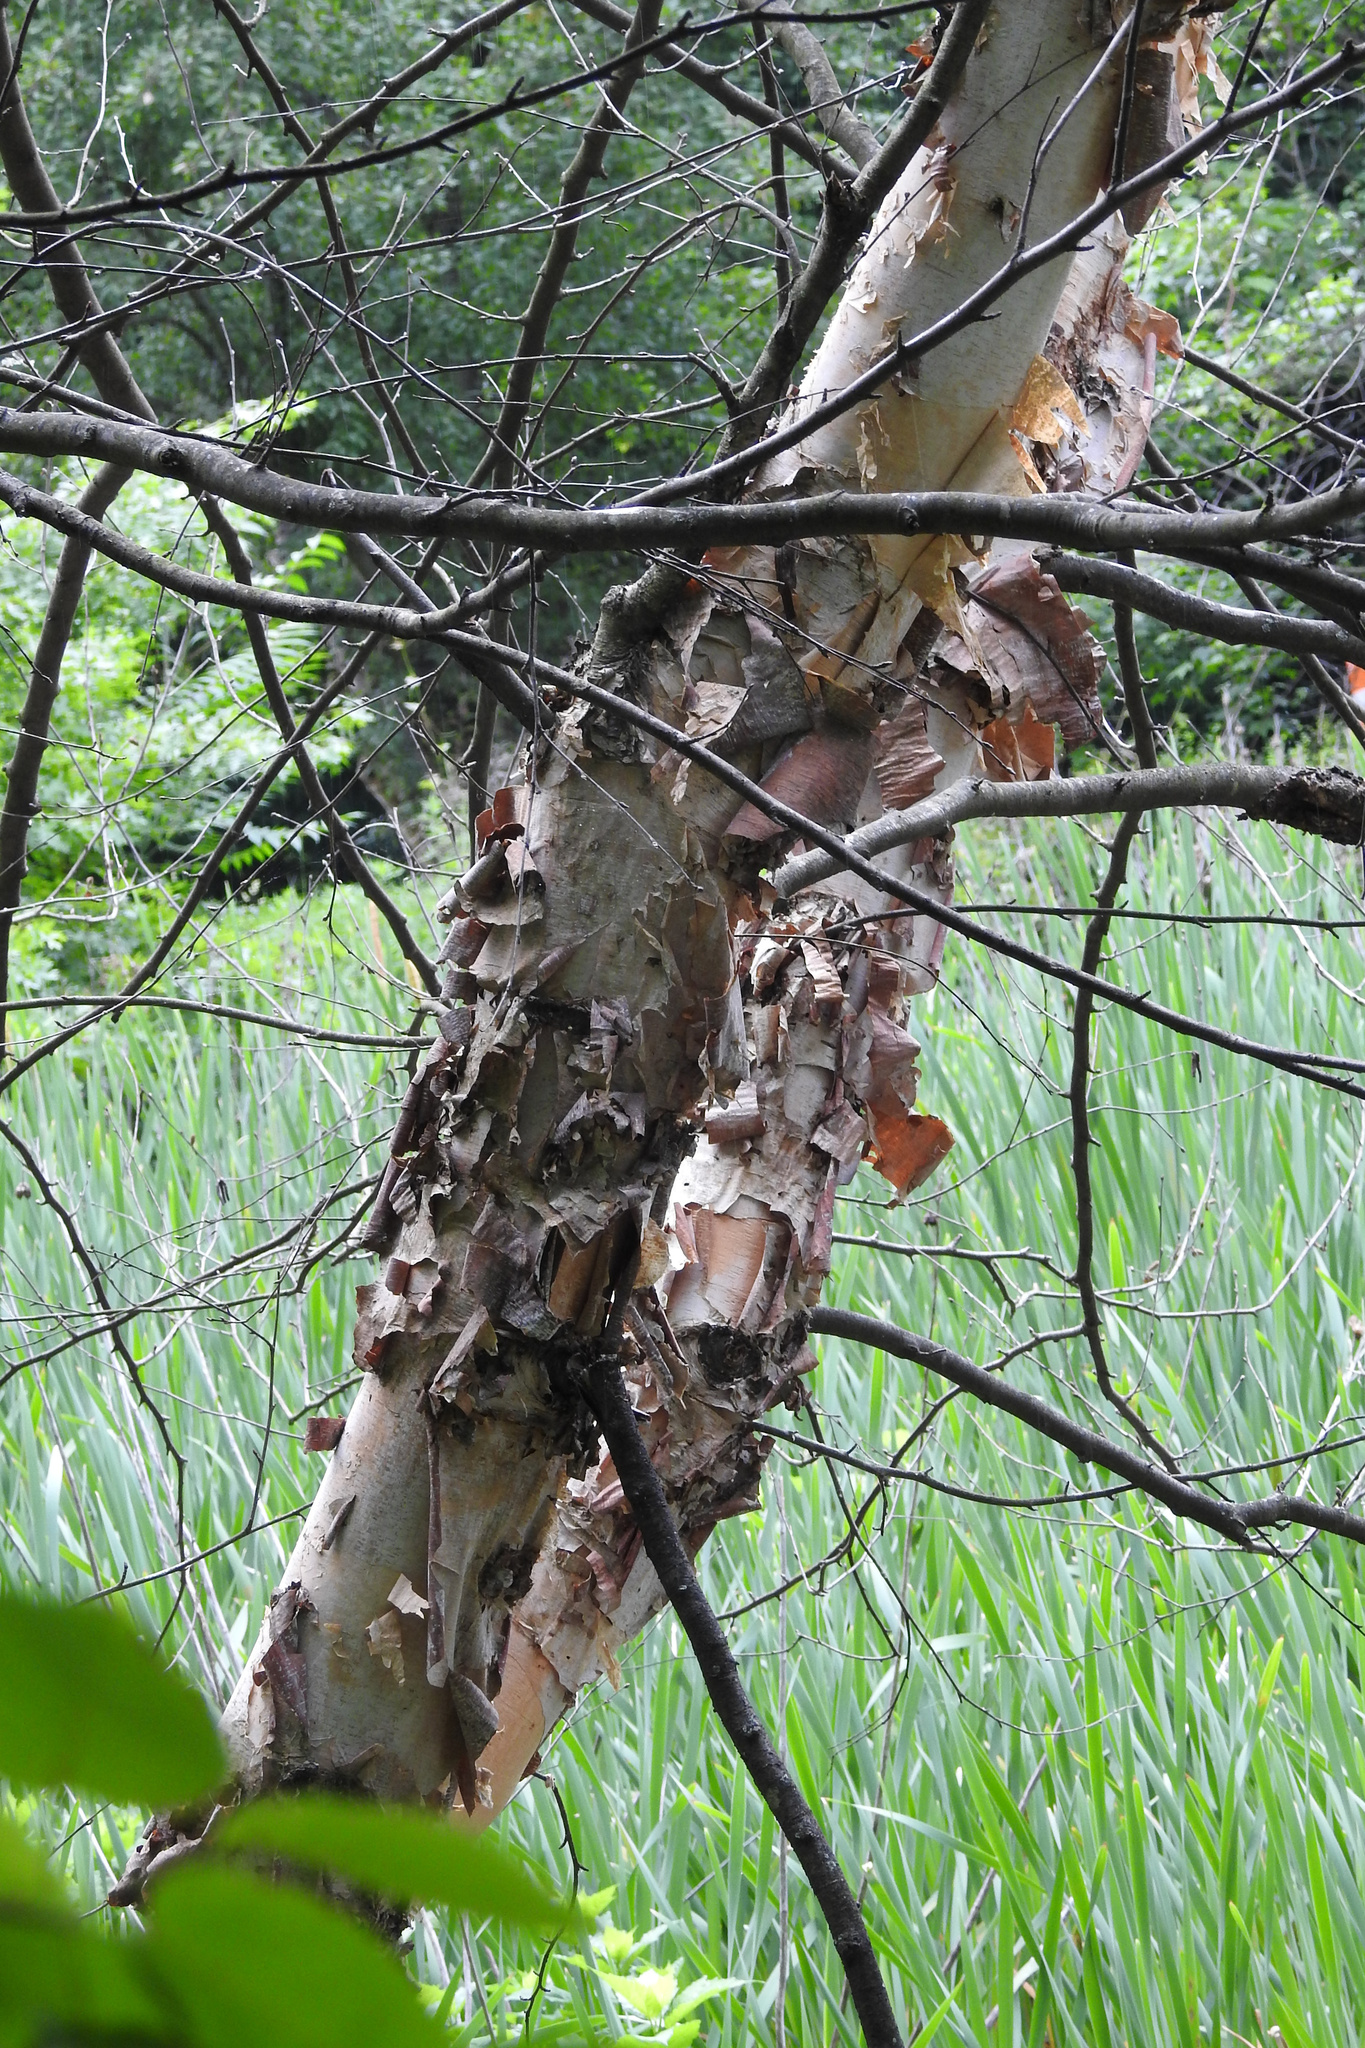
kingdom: Plantae
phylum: Tracheophyta
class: Magnoliopsida
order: Fagales
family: Betulaceae
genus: Betula
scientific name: Betula nigra
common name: Black birch
